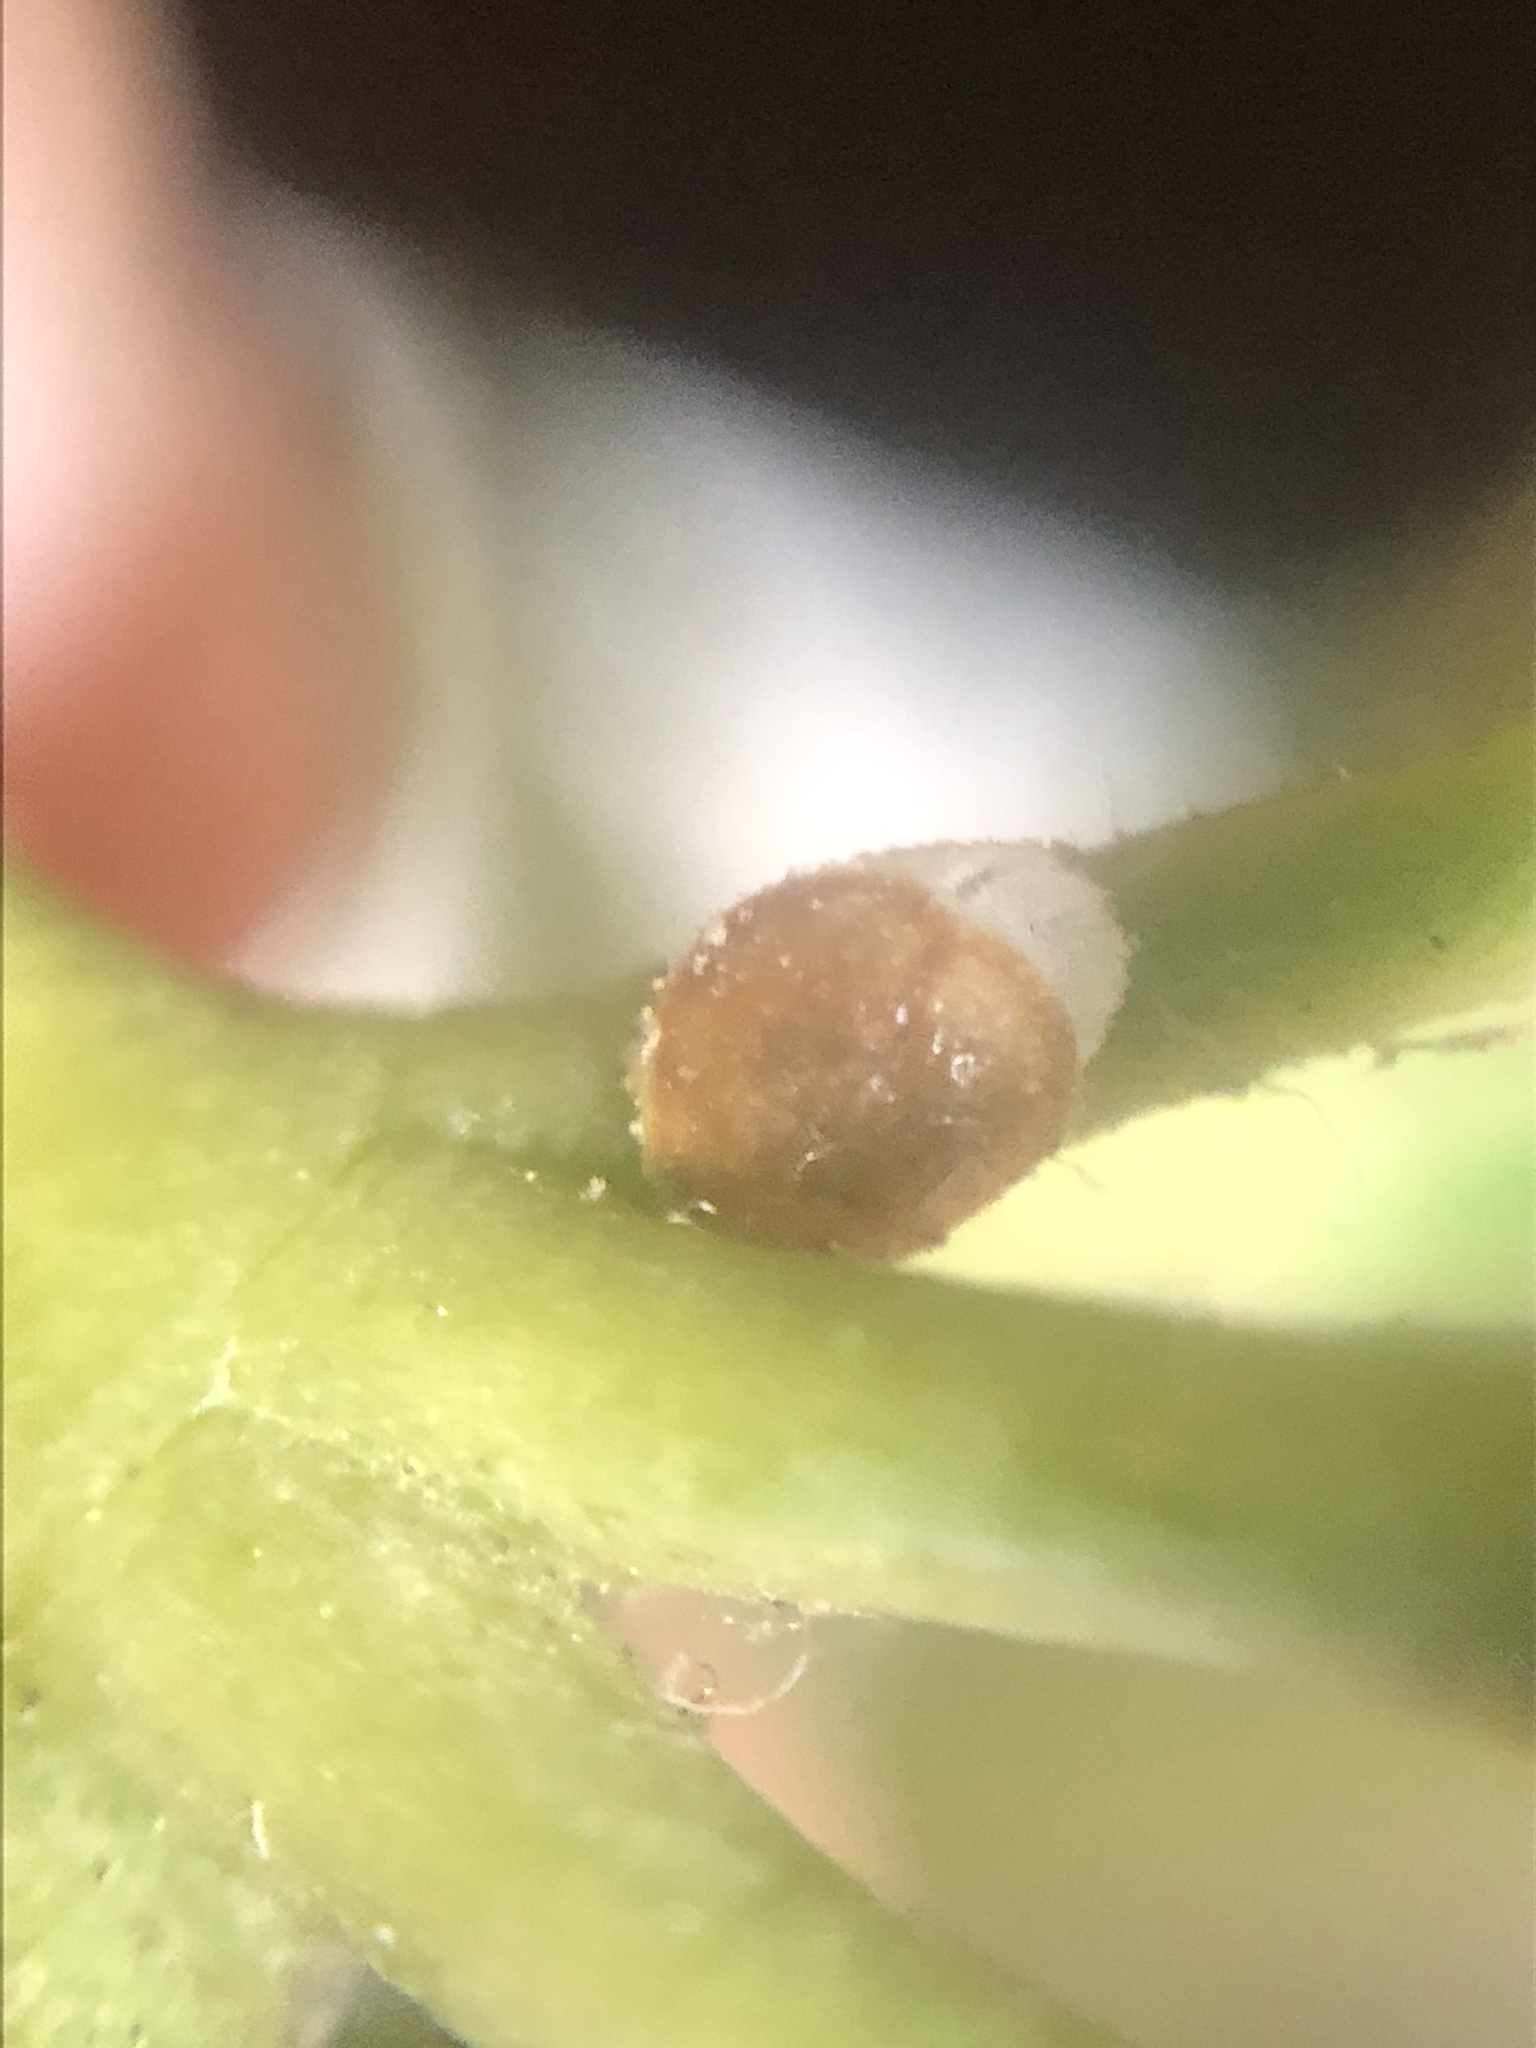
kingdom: Animalia
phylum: Arthropoda
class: Insecta
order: Hemiptera
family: Coccidae
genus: Protopulvinaria
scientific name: Protopulvinaria pyriformis
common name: Pyriform scale
